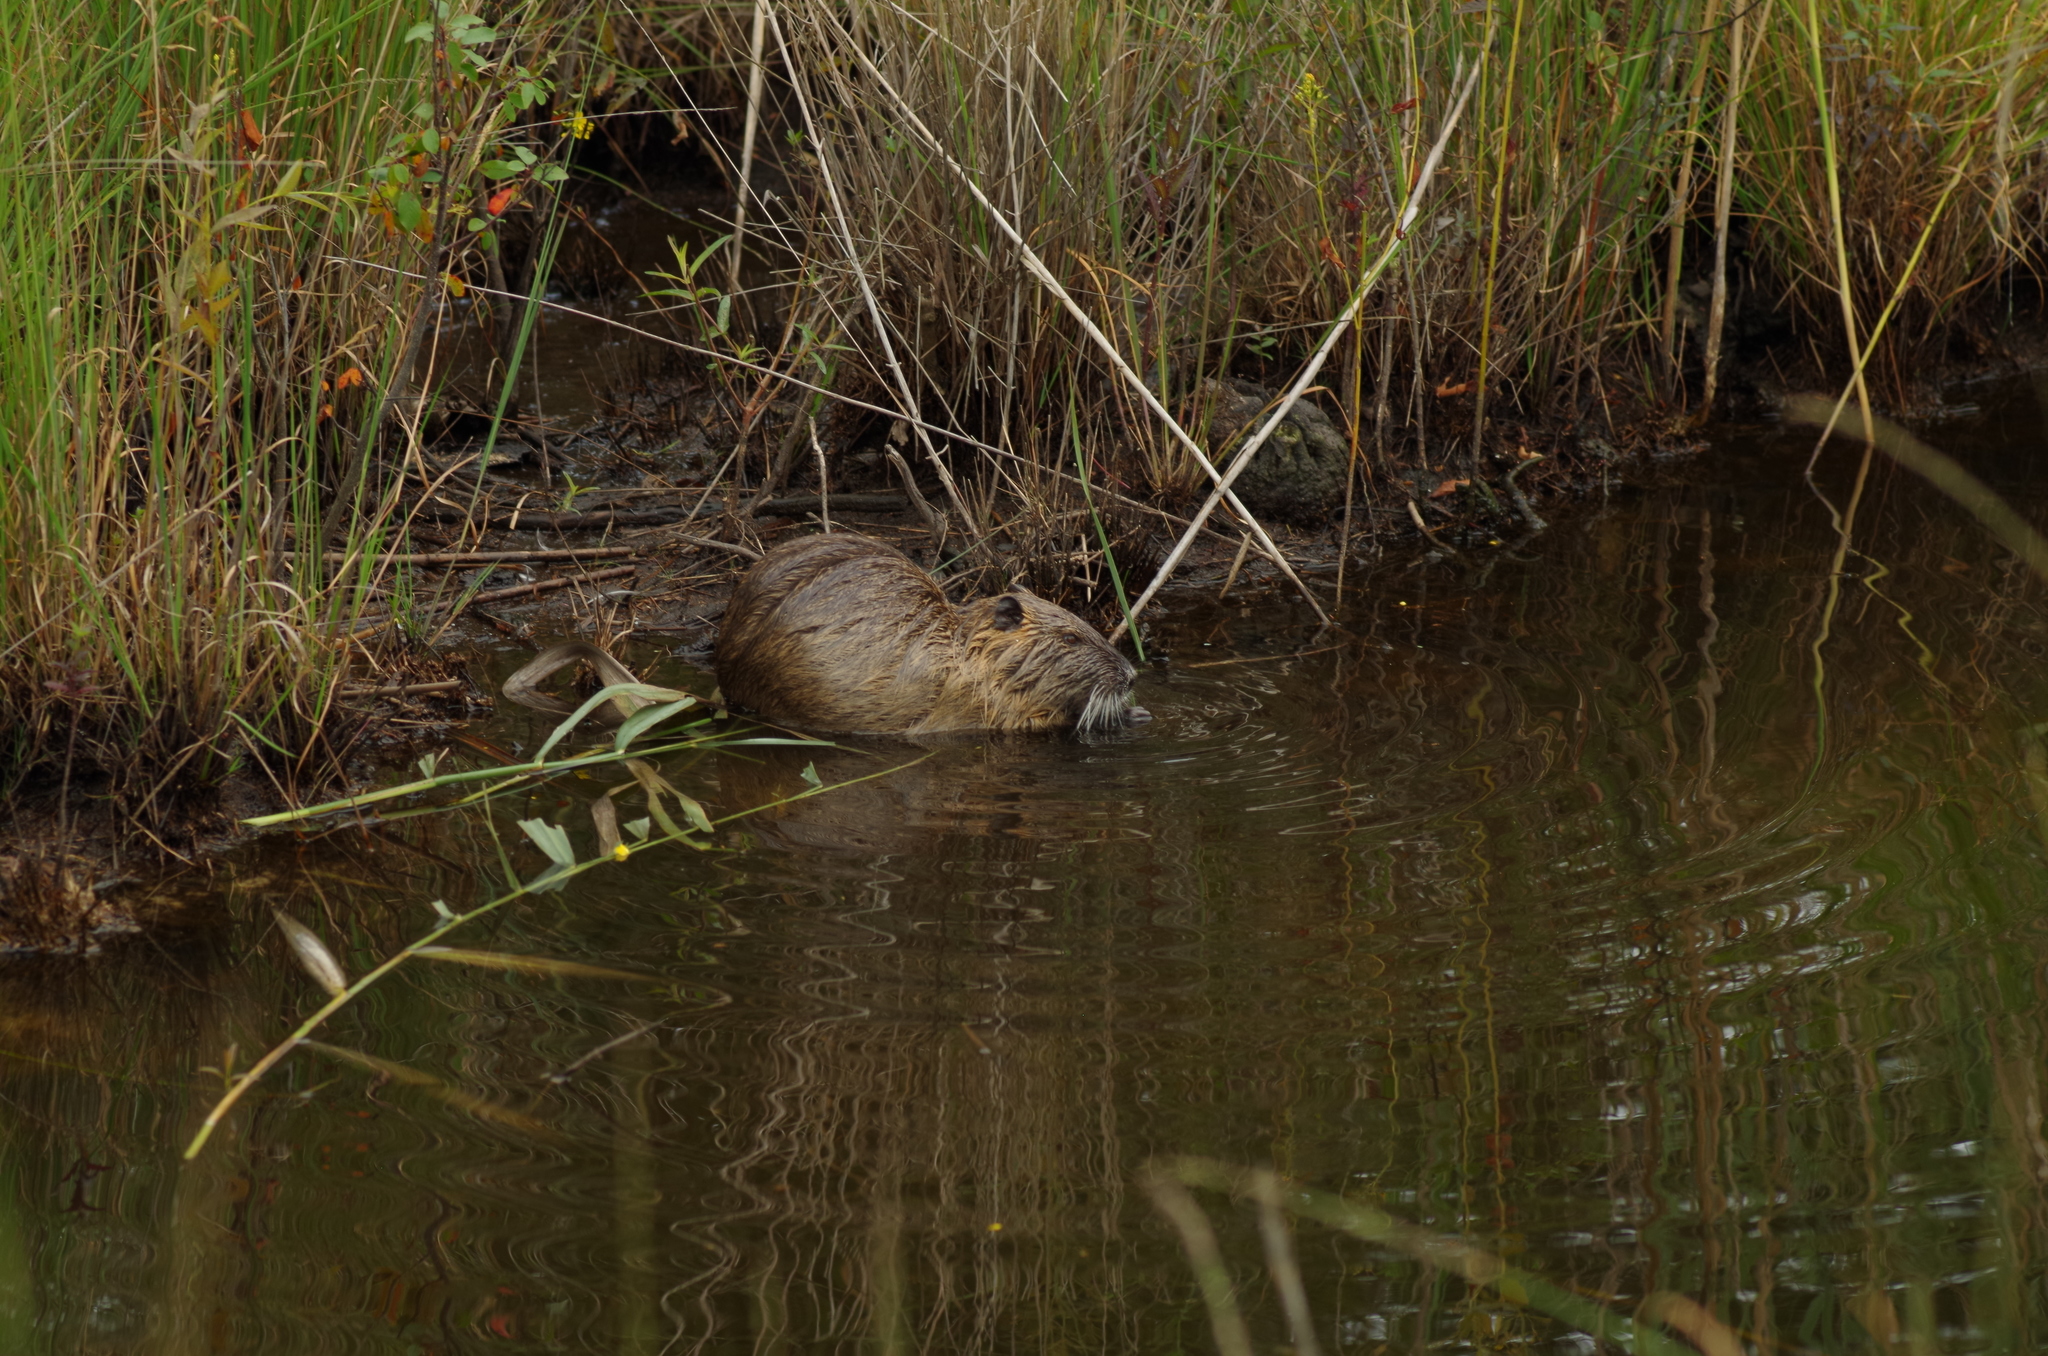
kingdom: Animalia
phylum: Chordata
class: Mammalia
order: Rodentia
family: Myocastoridae
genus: Myocastor
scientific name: Myocastor coypus
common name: Coypu
